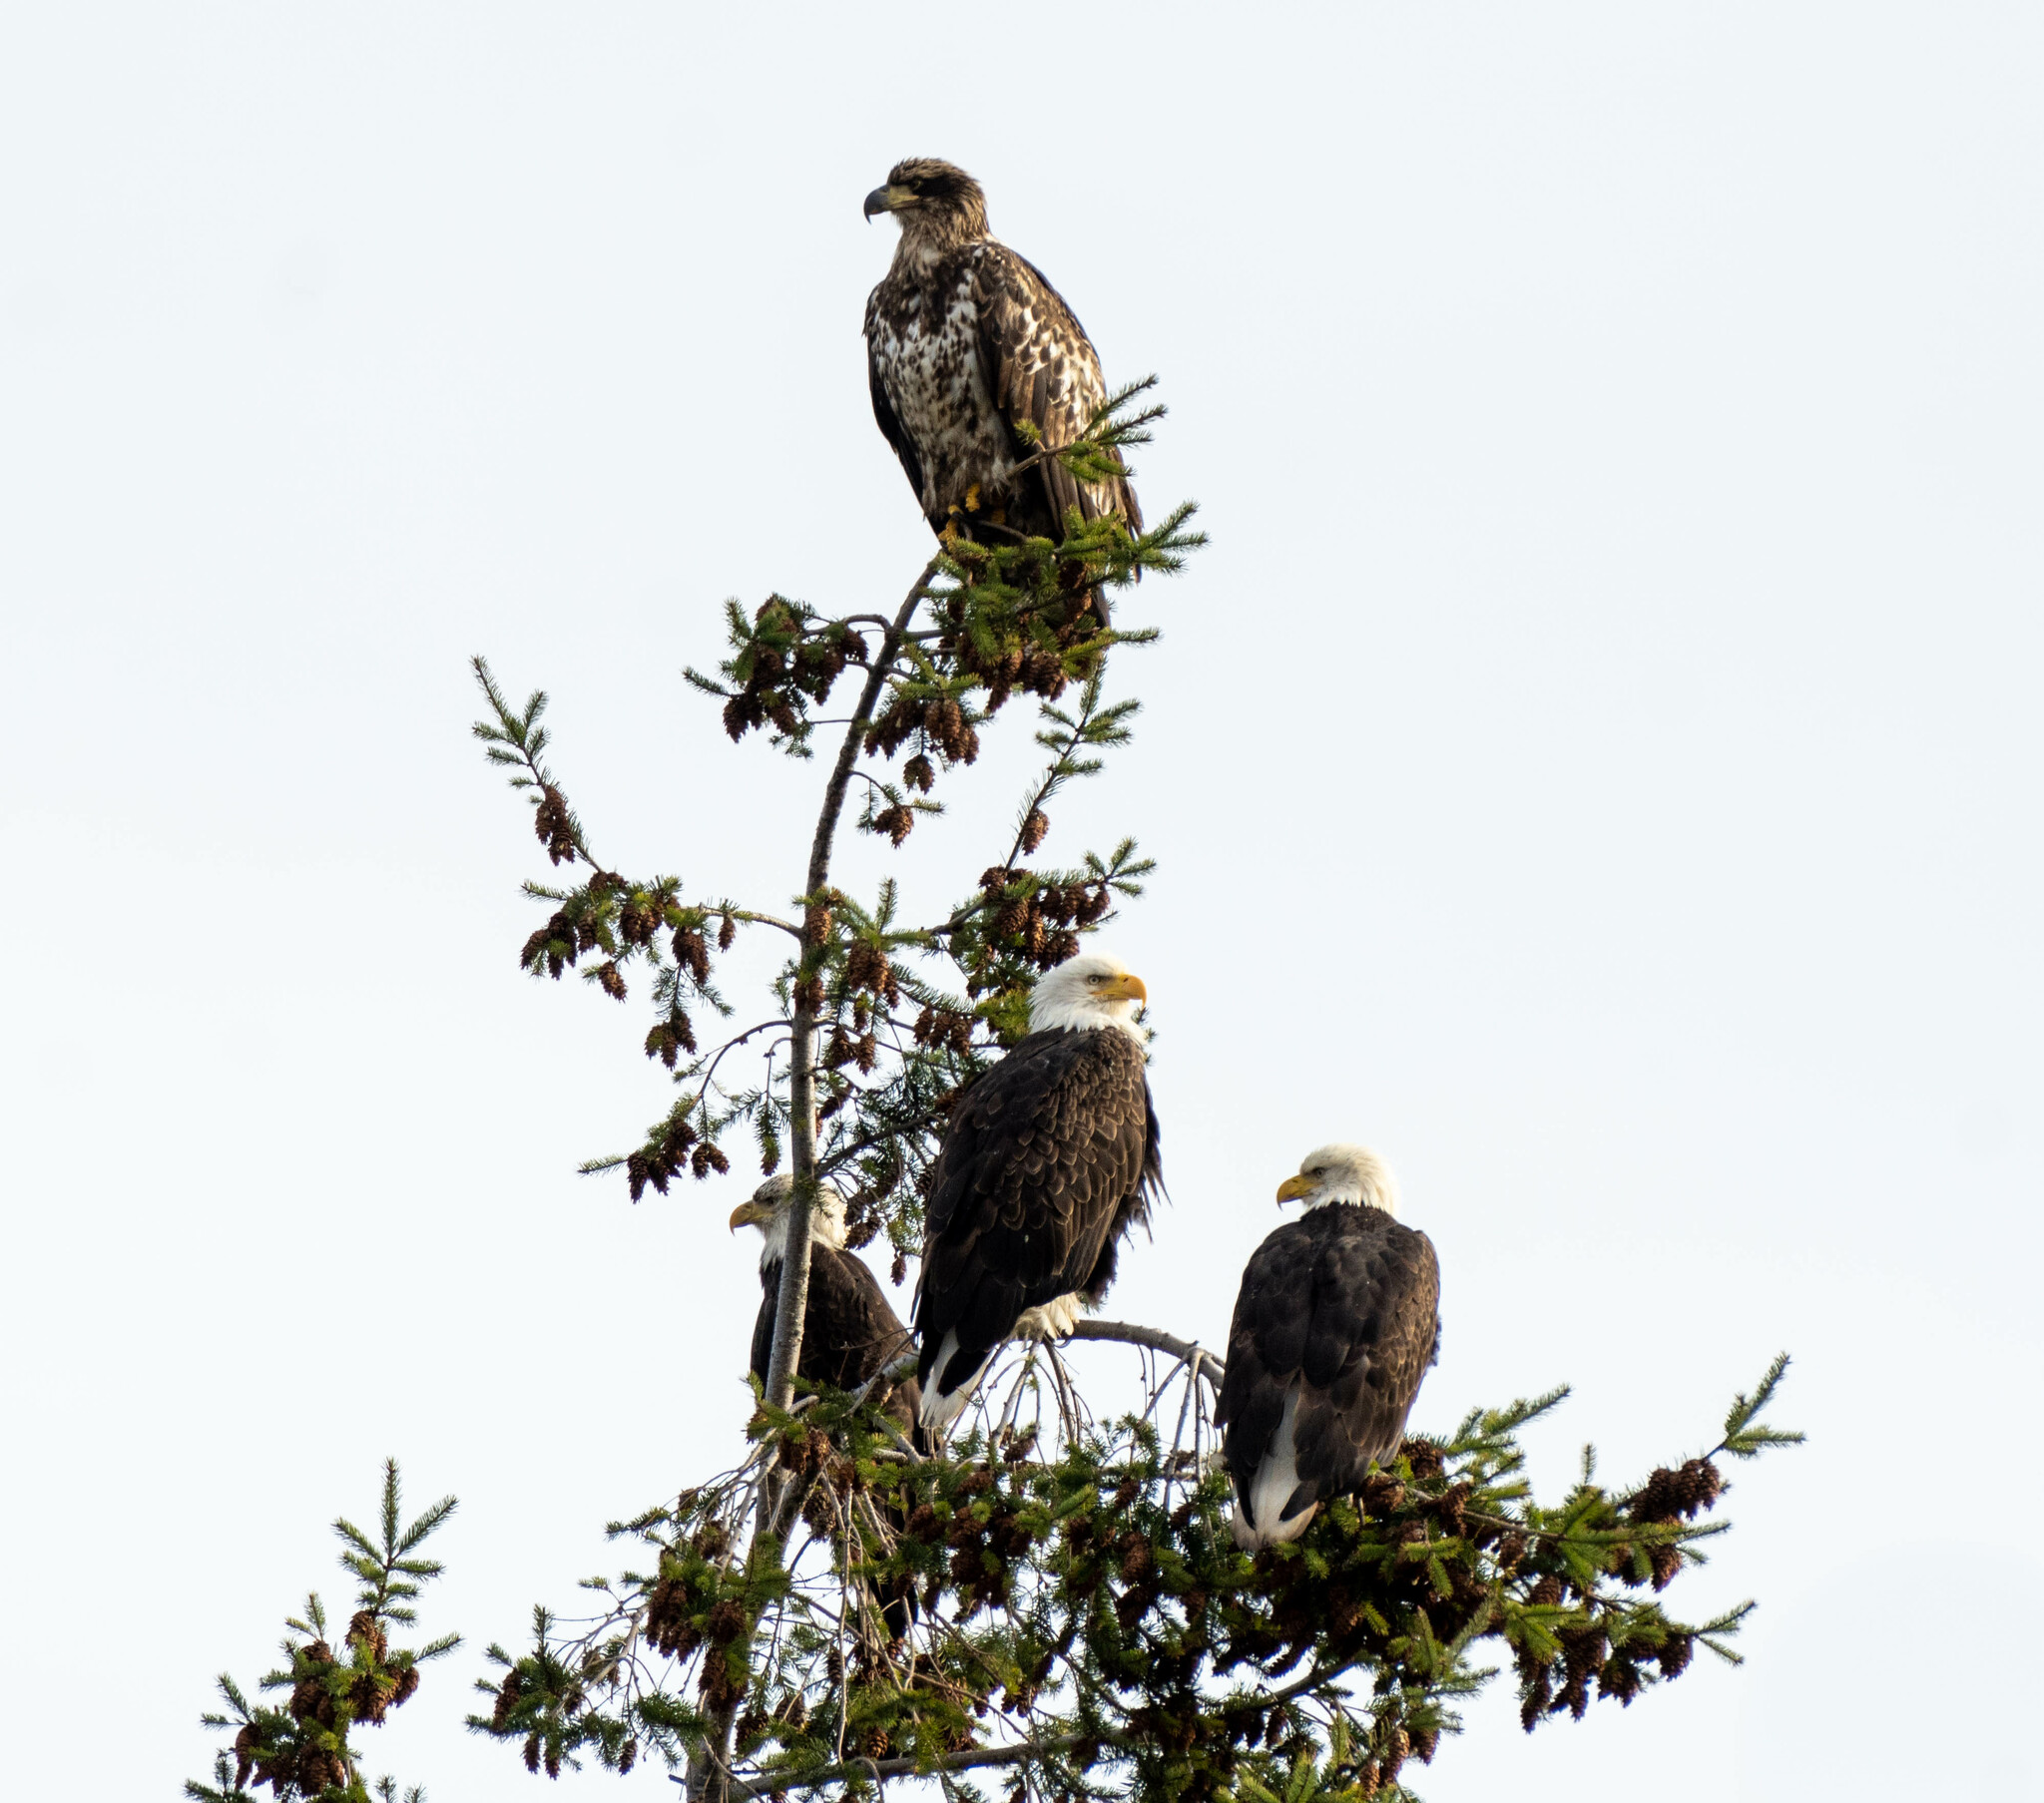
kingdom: Animalia
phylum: Chordata
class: Aves
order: Accipitriformes
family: Accipitridae
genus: Haliaeetus
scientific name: Haliaeetus leucocephalus
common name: Bald eagle
